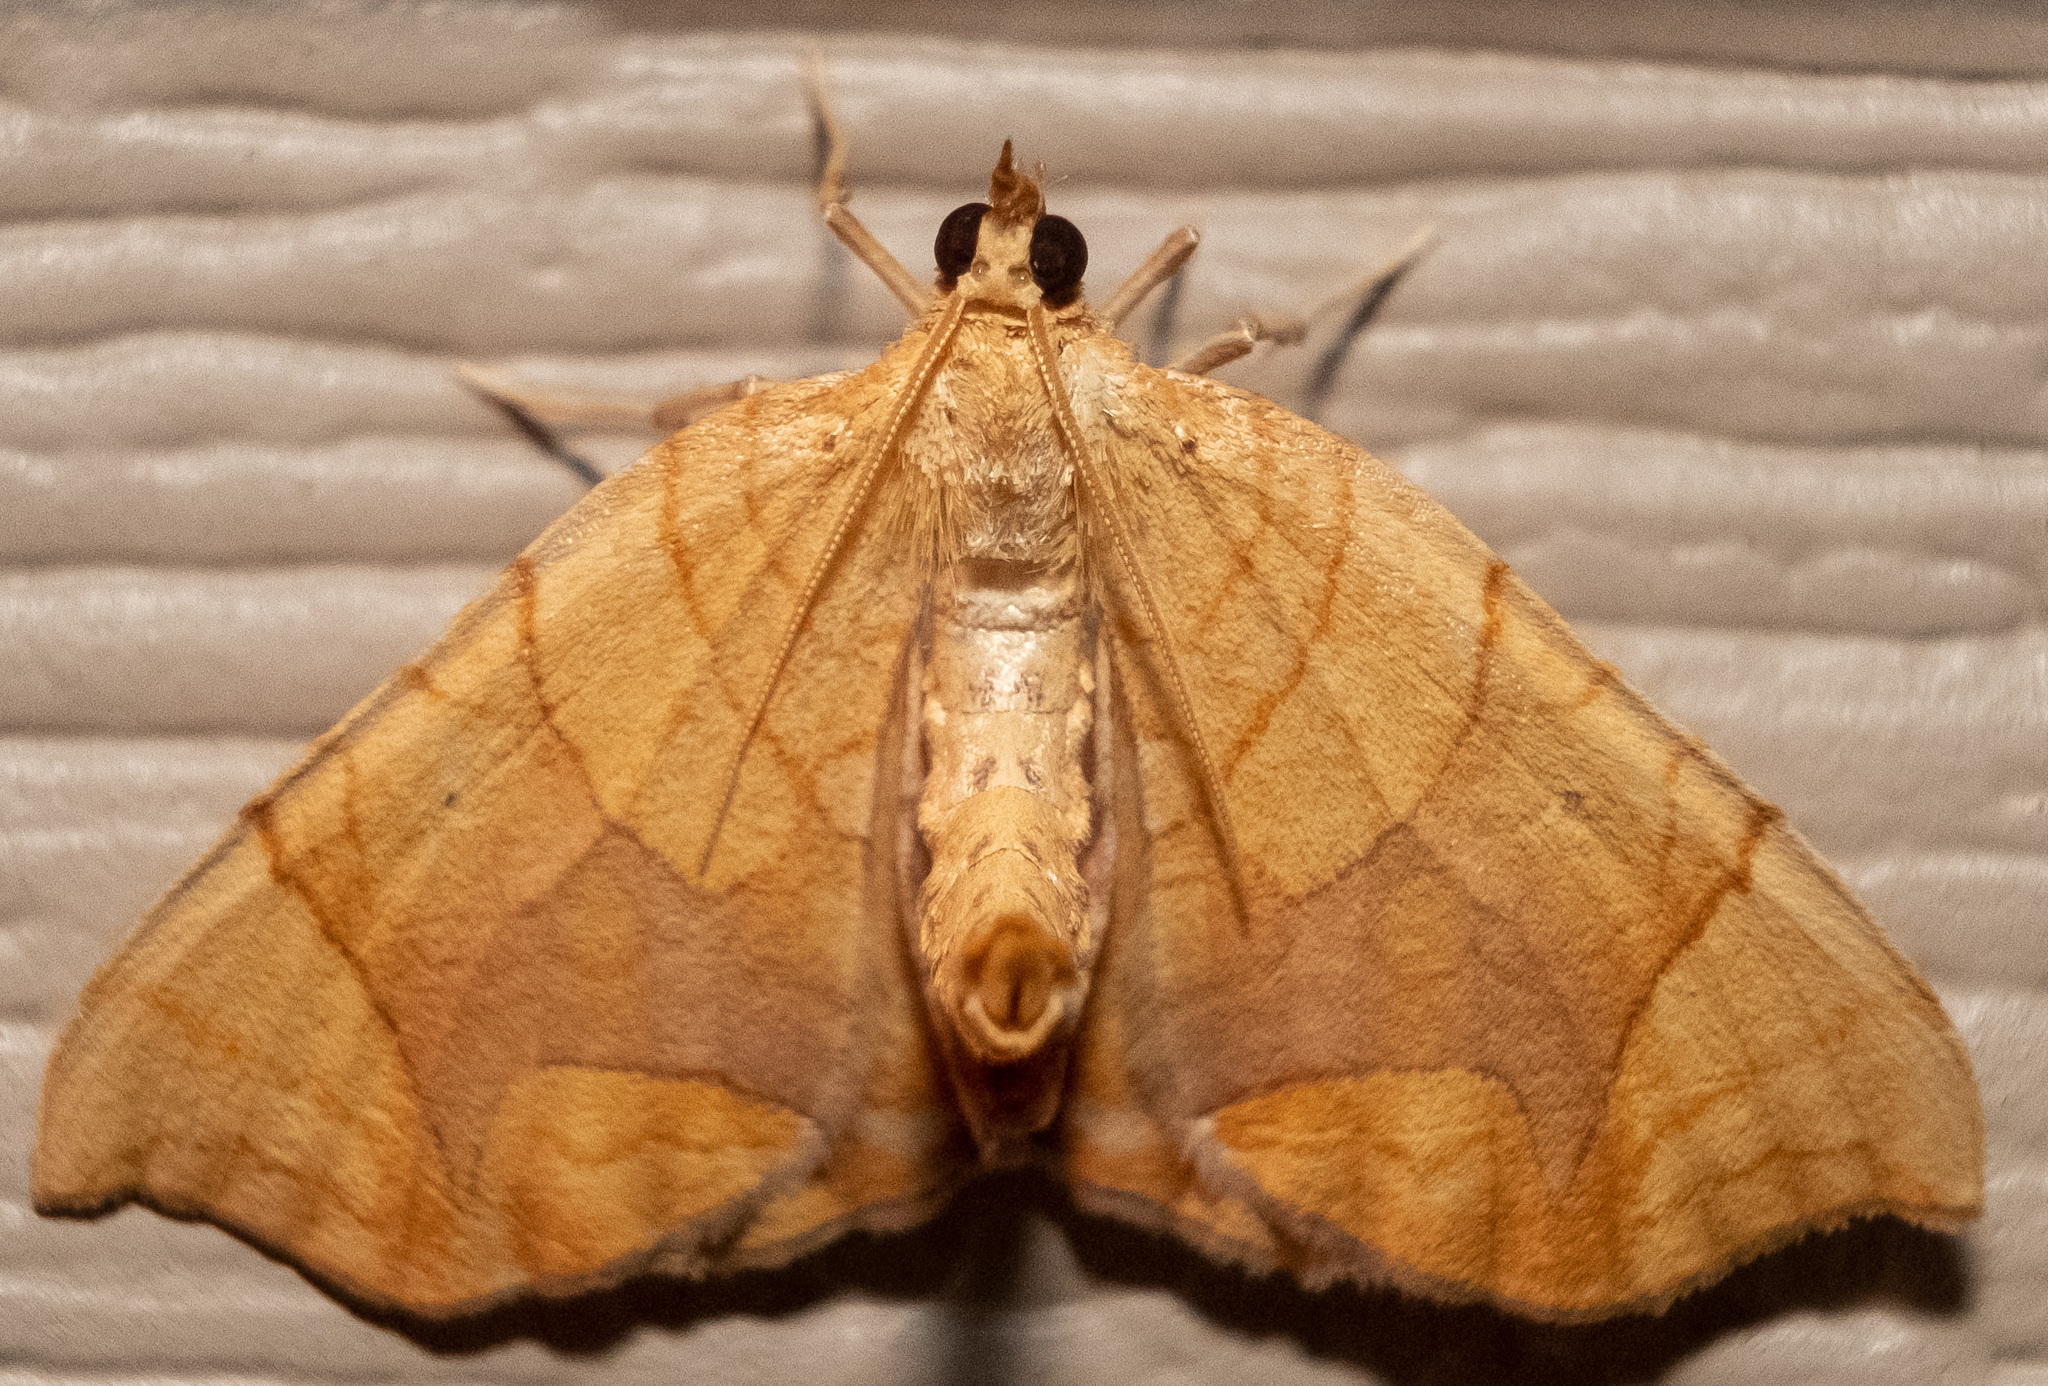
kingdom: Animalia
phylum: Arthropoda
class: Insecta
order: Lepidoptera
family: Geometridae
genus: Eulithis
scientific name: Eulithis diversilineata
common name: Grapevine looper
